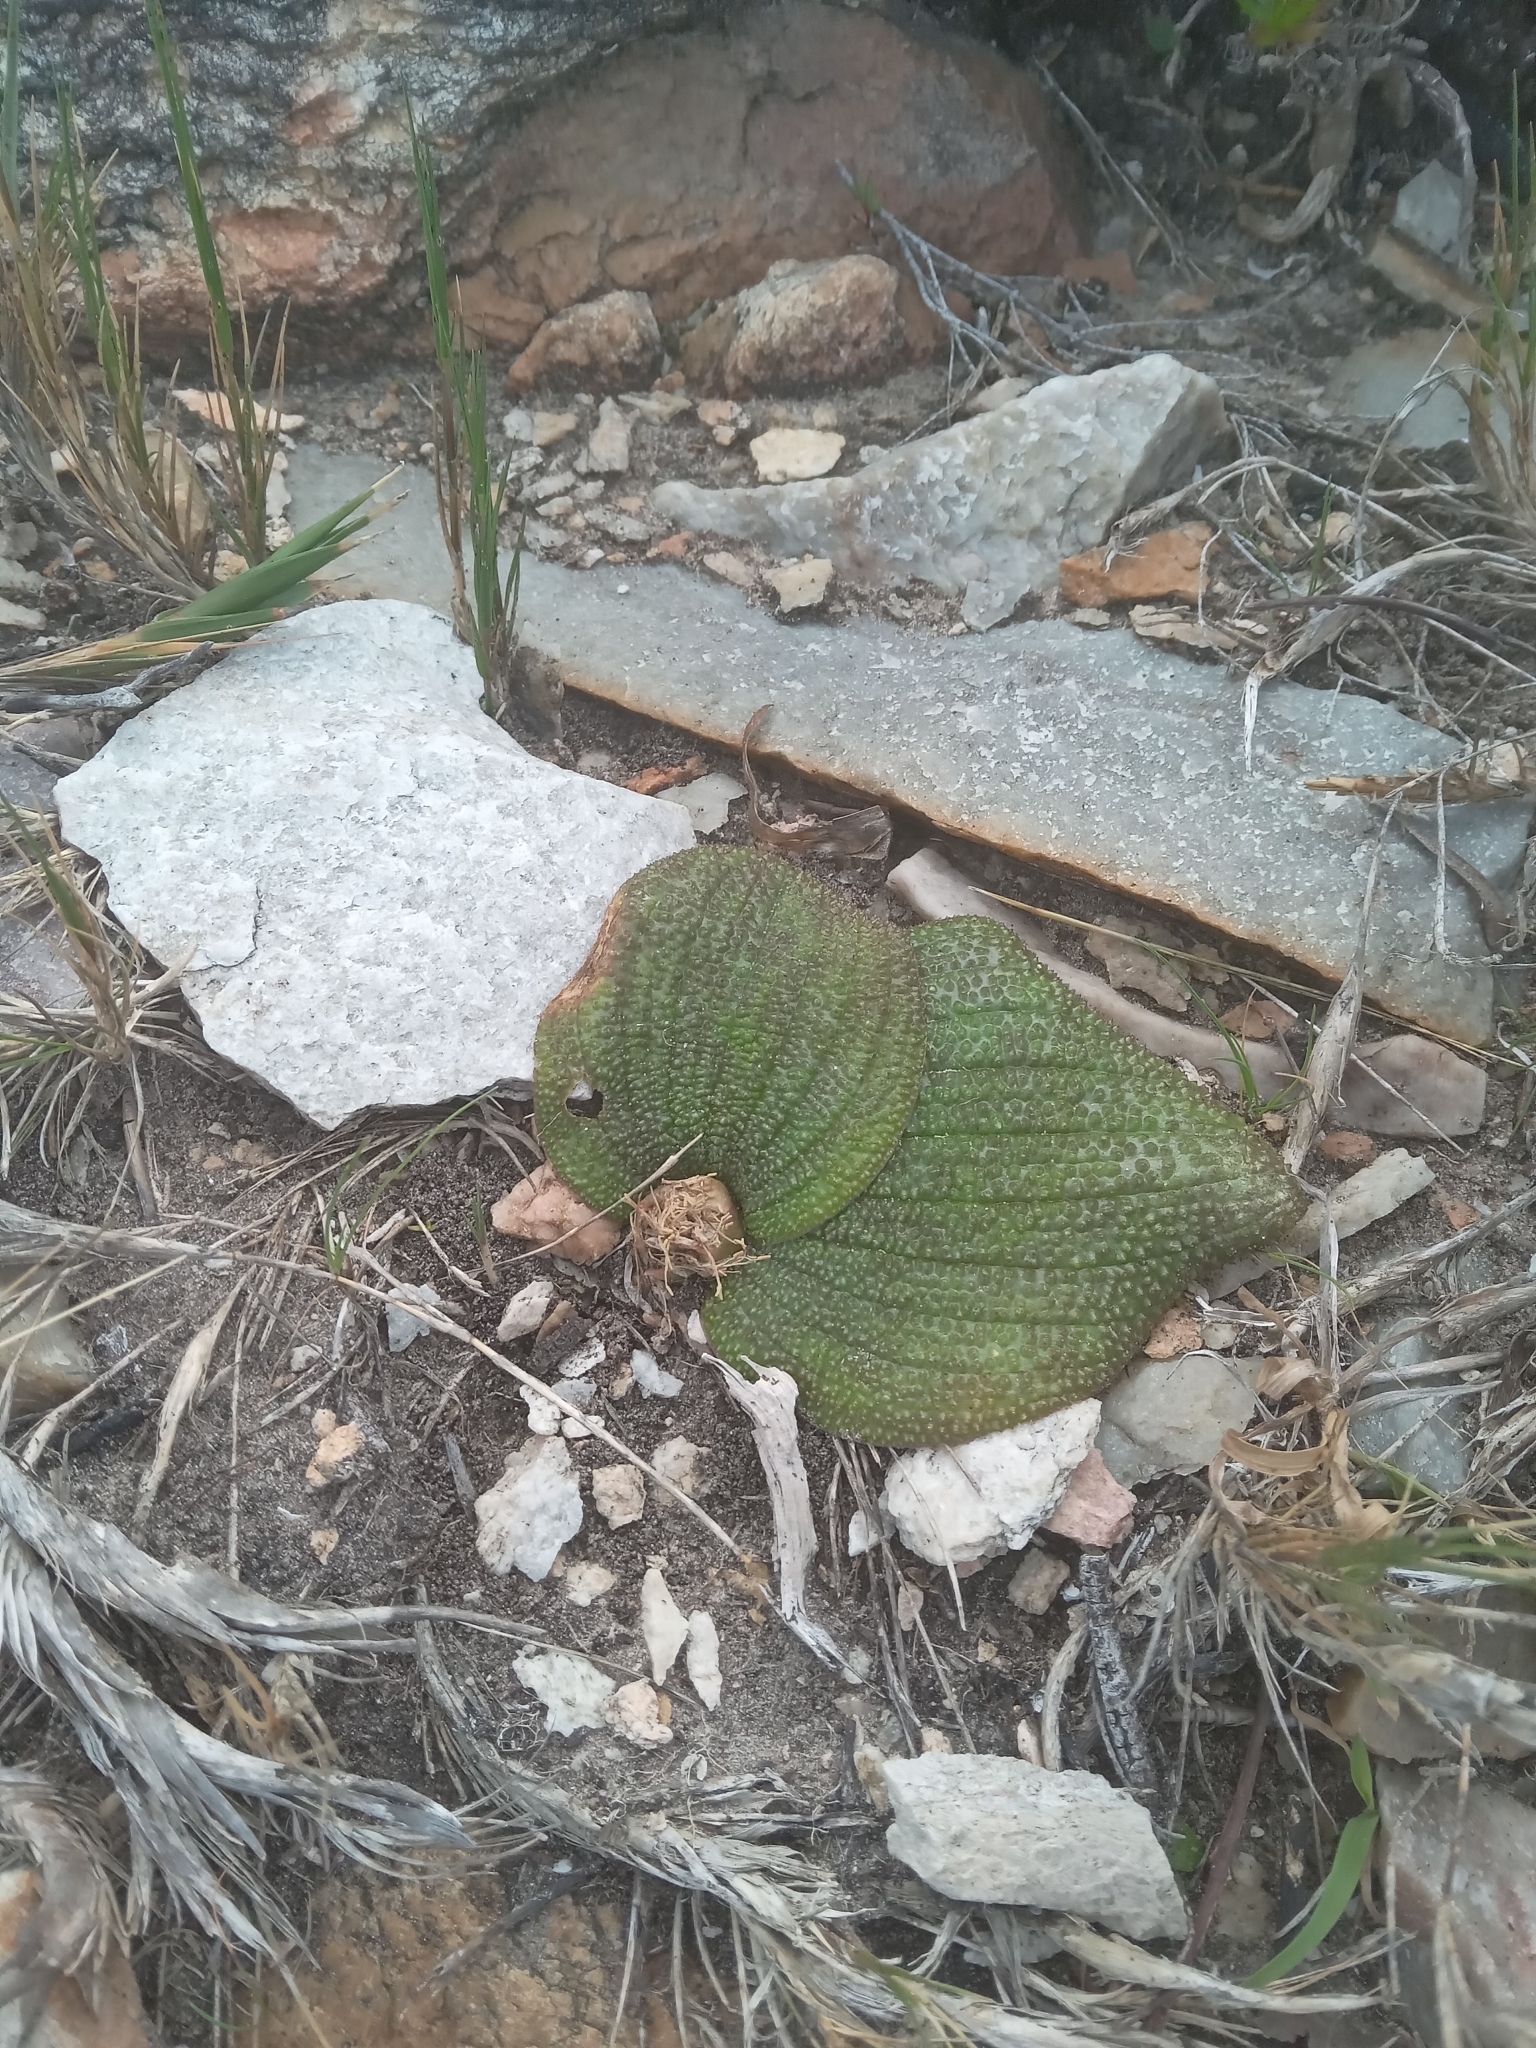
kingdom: Plantae
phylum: Tracheophyta
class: Liliopsida
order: Asparagales
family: Asparagaceae
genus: Massonia
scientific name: Massonia longipes
